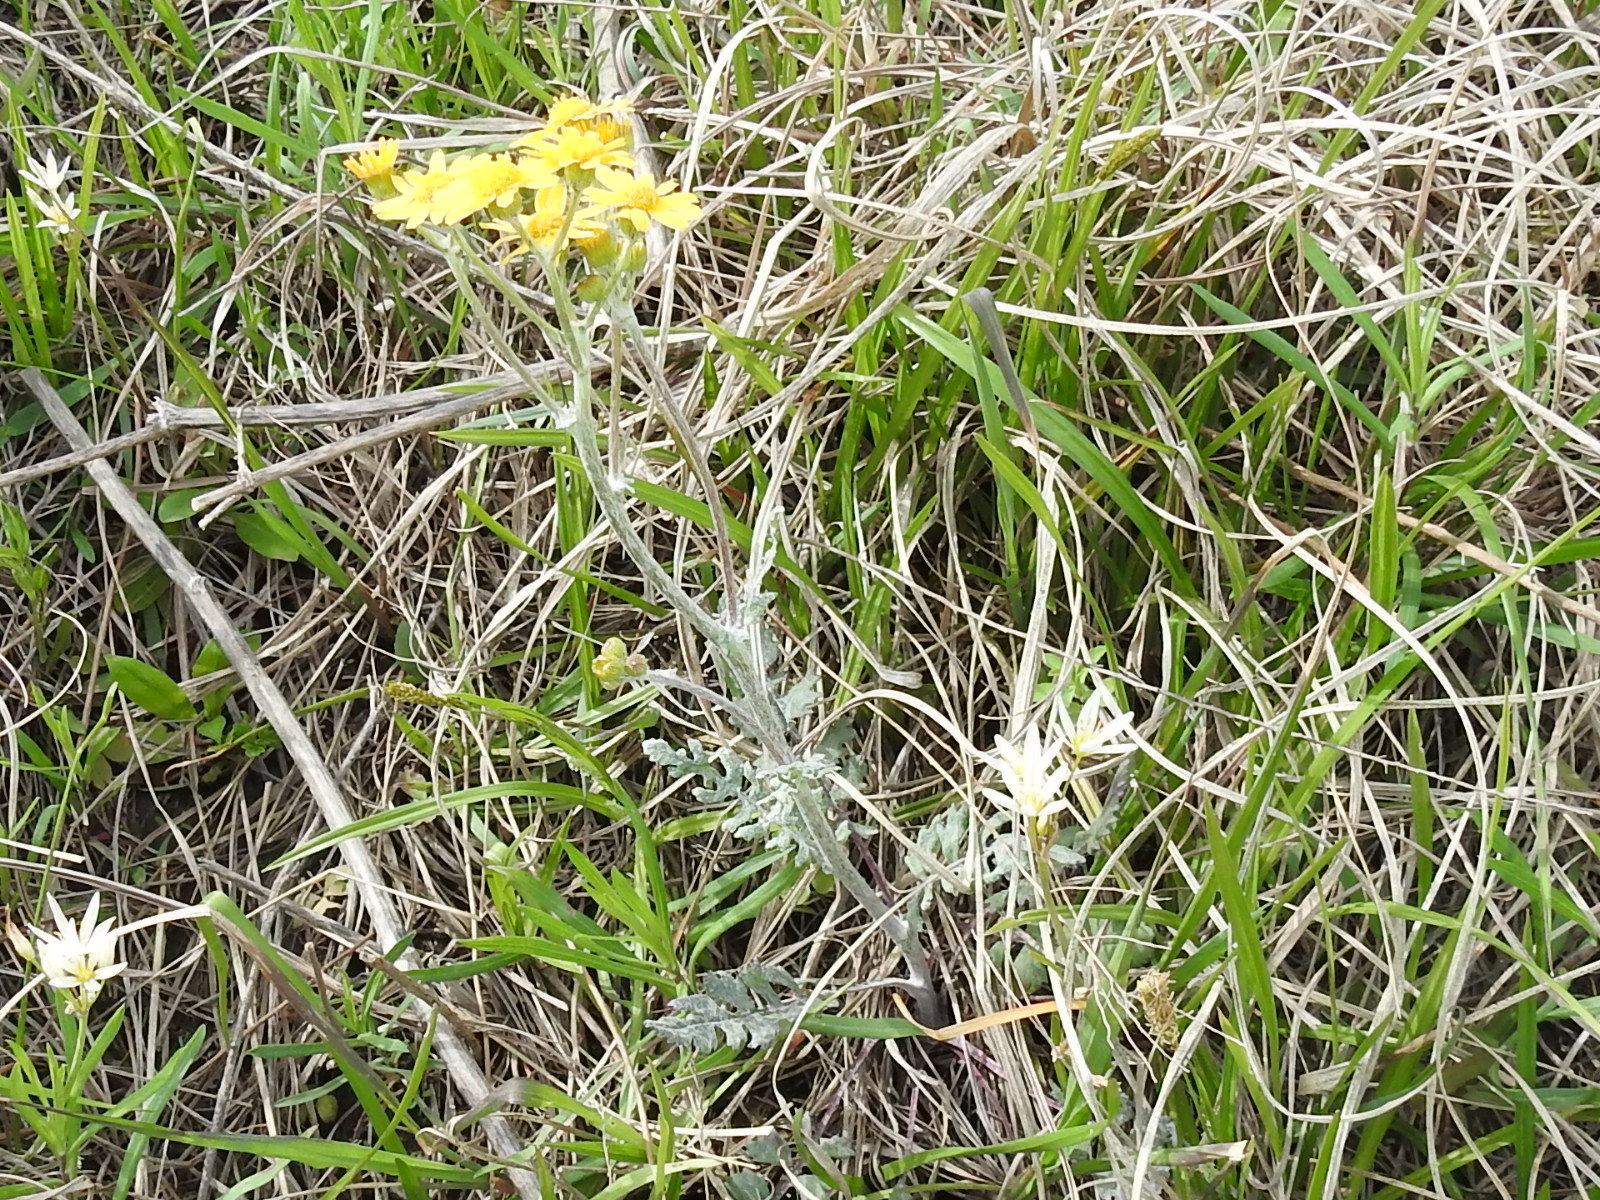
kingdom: Plantae
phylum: Tracheophyta
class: Magnoliopsida
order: Asterales
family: Asteraceae
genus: Packera
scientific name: Packera plattensis
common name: Prairie groundsel
